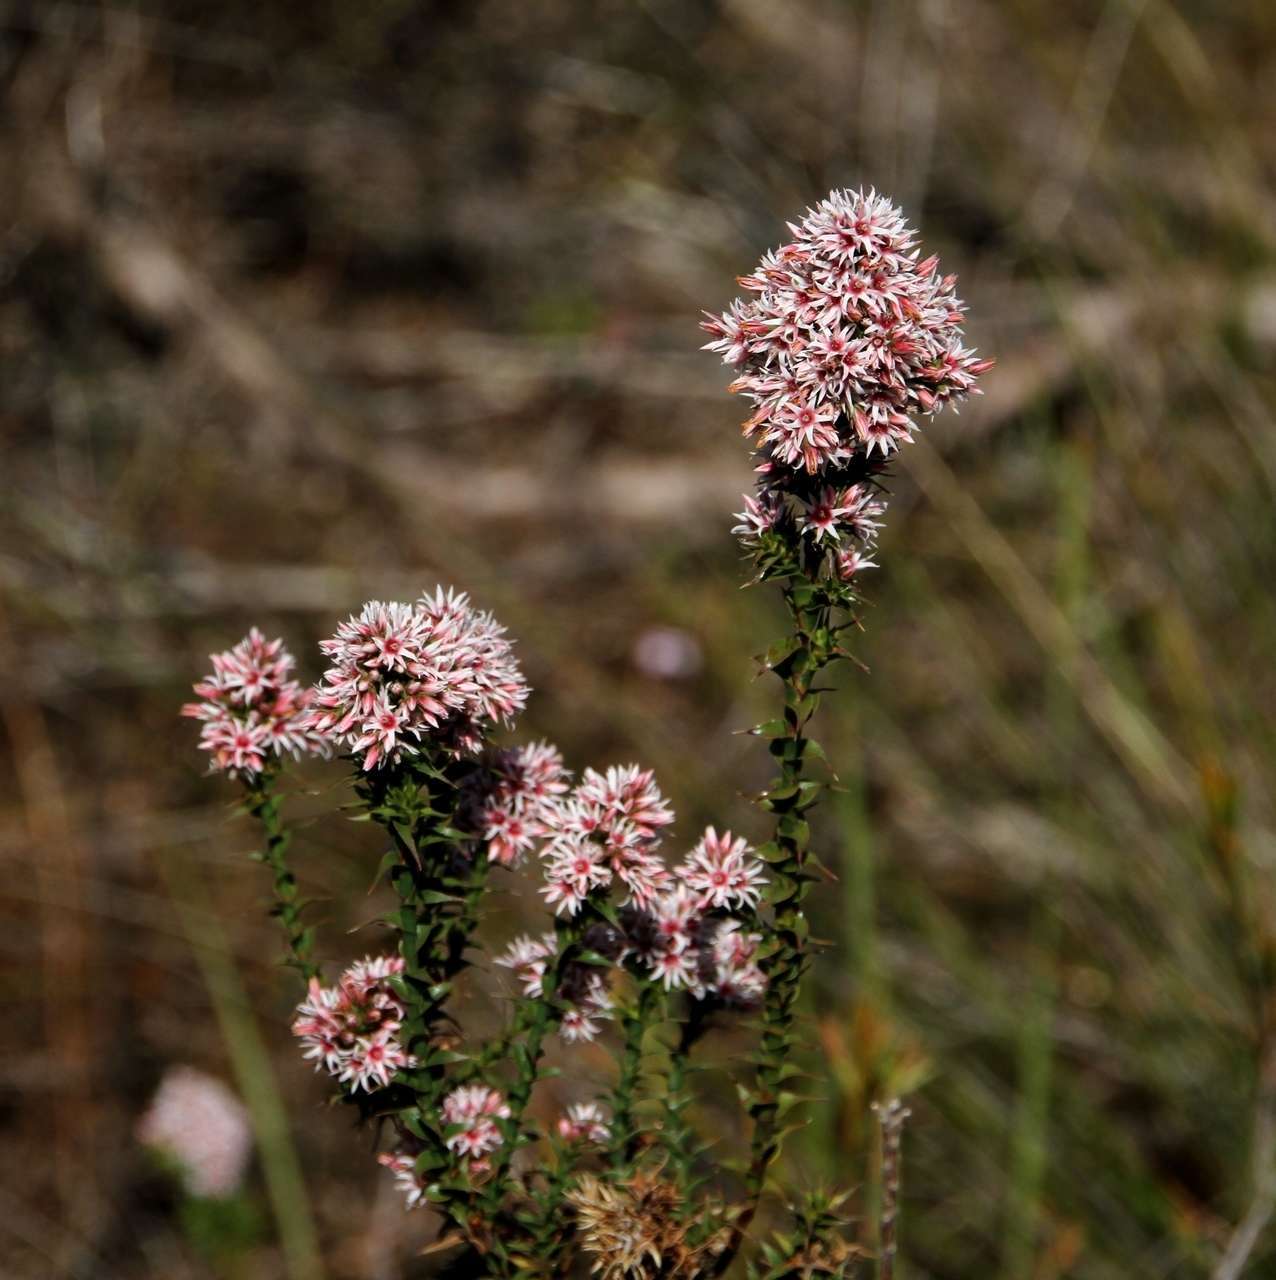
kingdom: Plantae
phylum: Tracheophyta
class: Magnoliopsida
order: Ericales
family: Ericaceae
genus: Sprengelia
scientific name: Sprengelia incarnata
